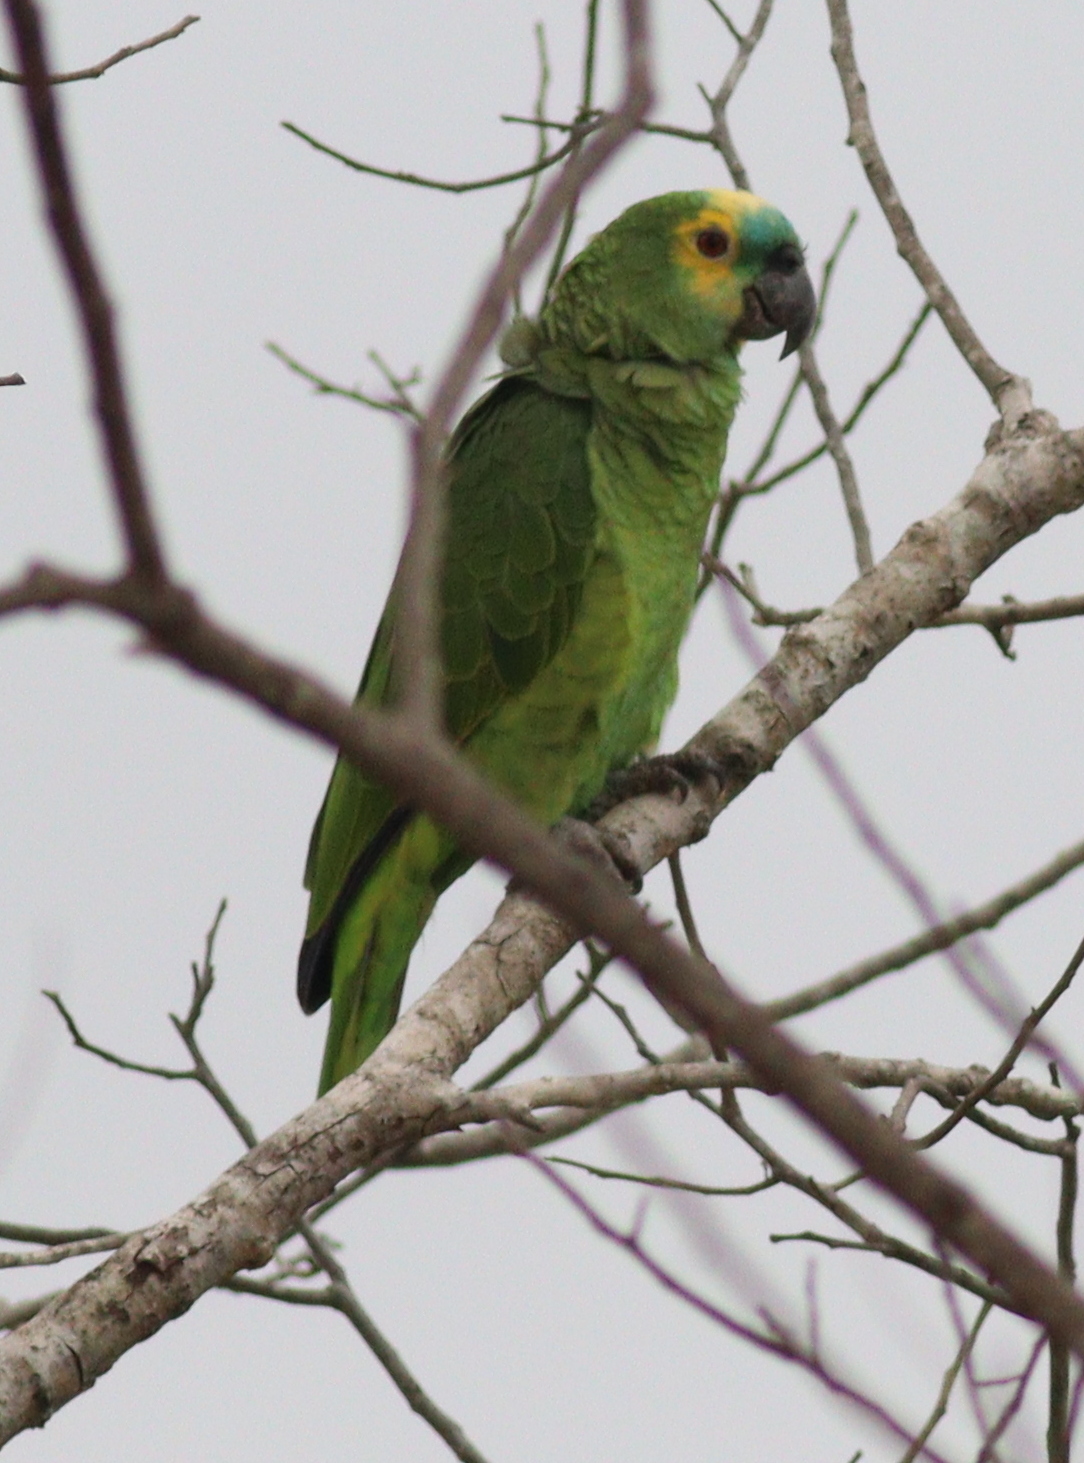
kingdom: Animalia
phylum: Chordata
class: Aves
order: Psittaciformes
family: Psittacidae
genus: Amazona
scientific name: Amazona aestiva
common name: Turquoise-fronted amazon
